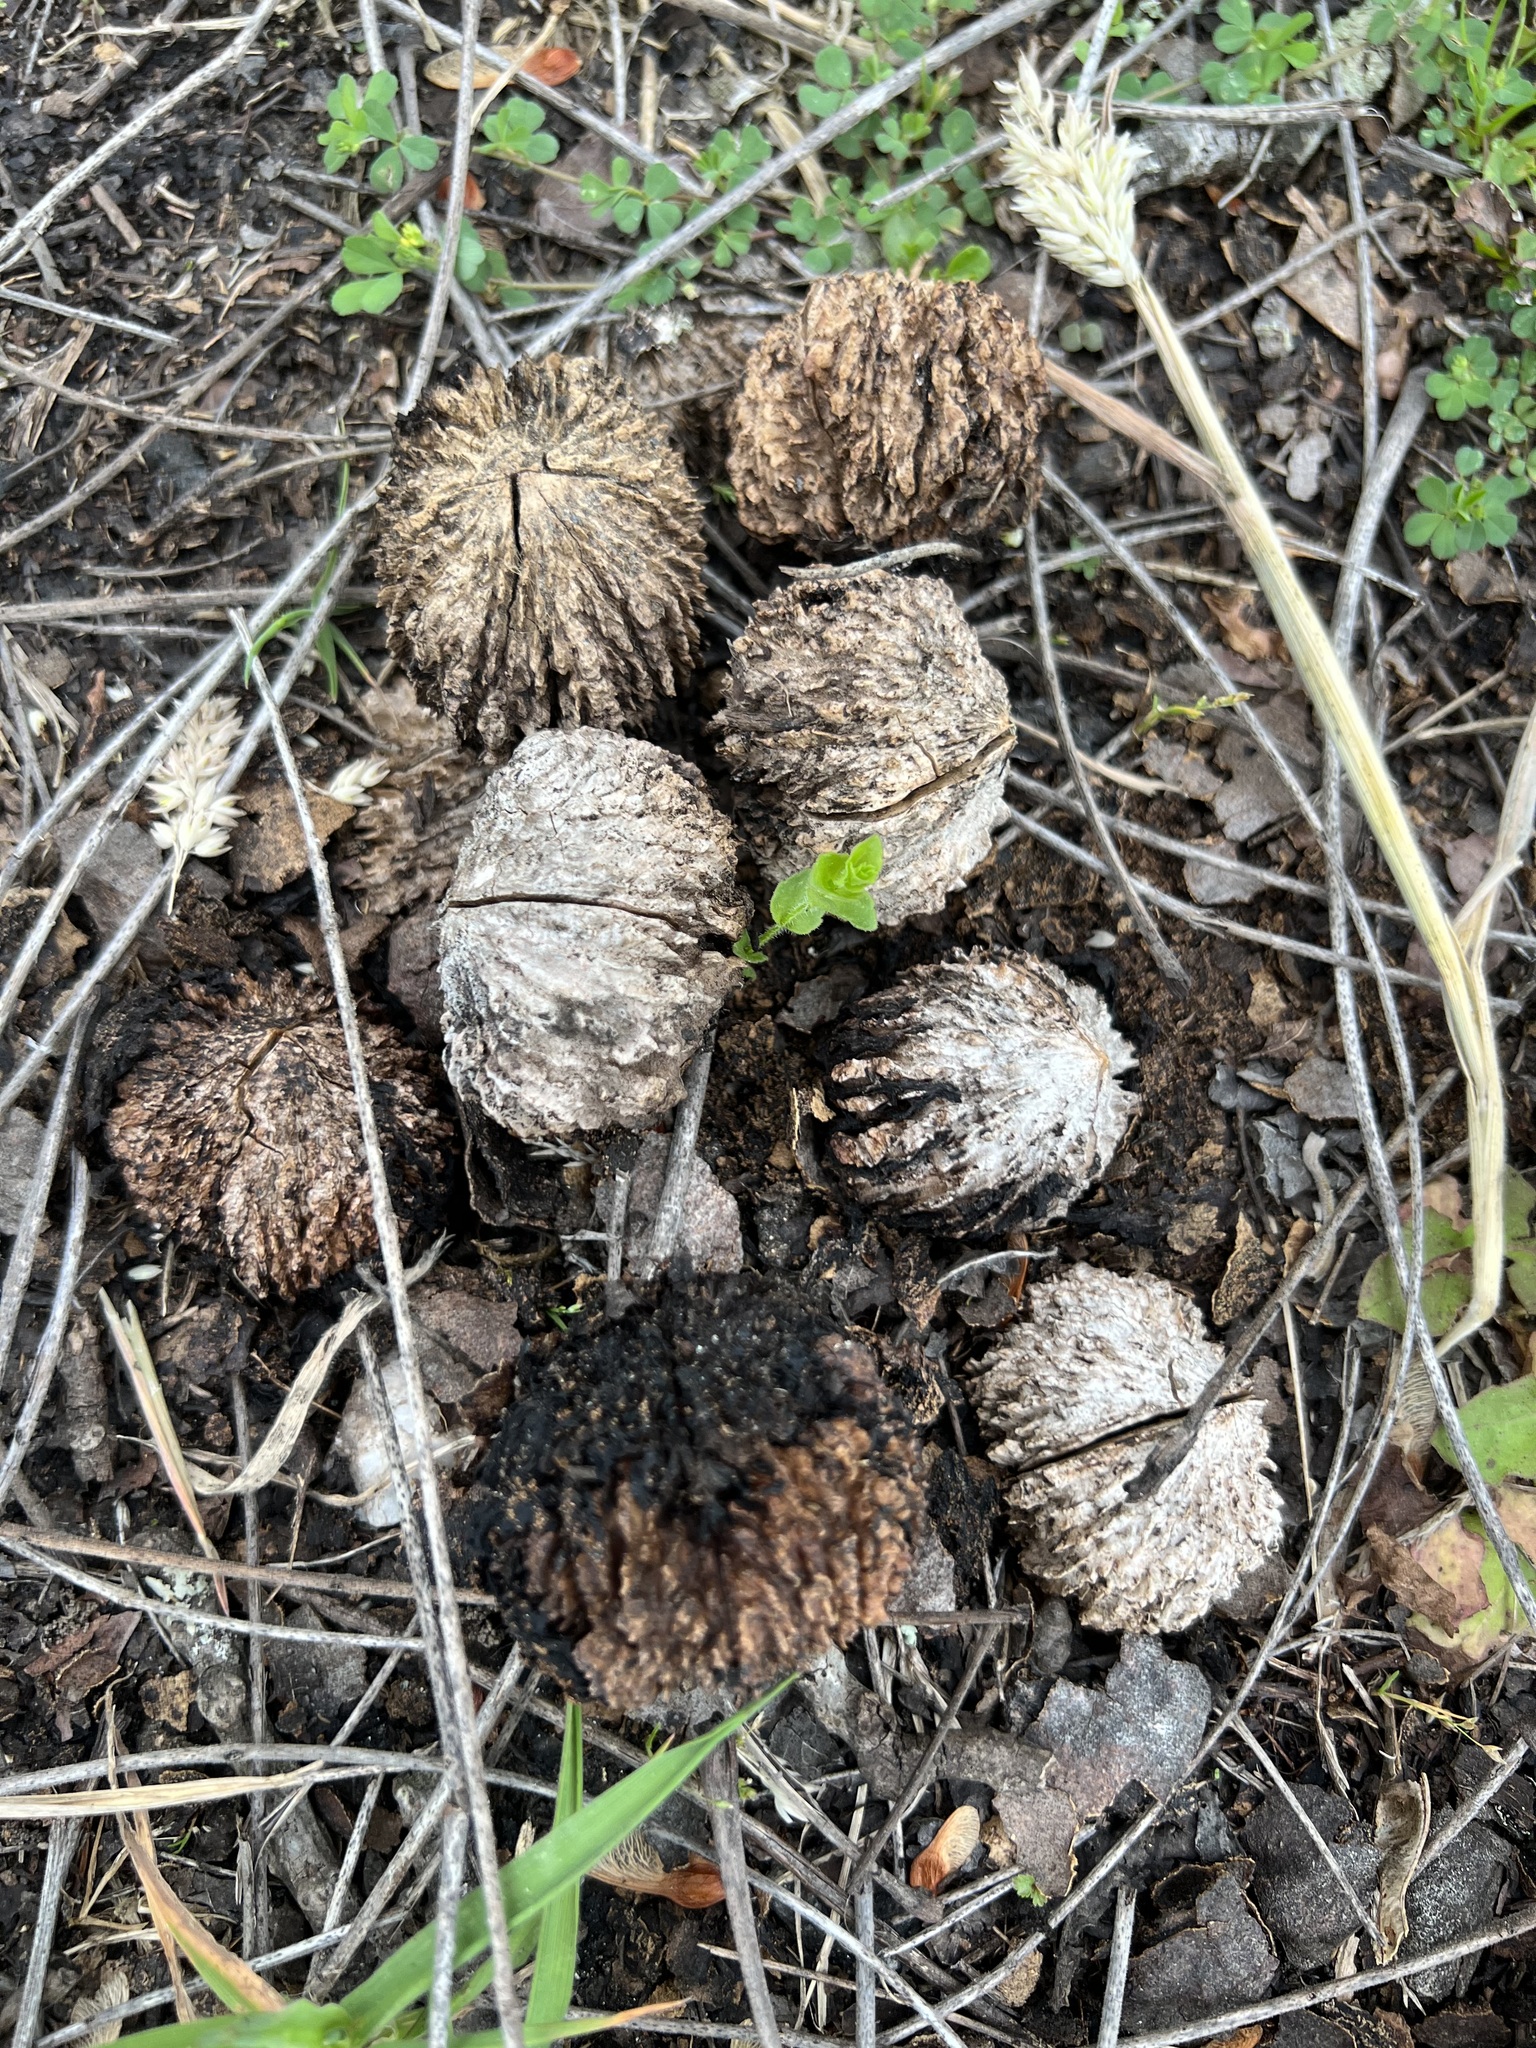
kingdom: Plantae
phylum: Tracheophyta
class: Magnoliopsida
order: Fagales
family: Juglandaceae
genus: Juglans
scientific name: Juglans nigra
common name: Black walnut
